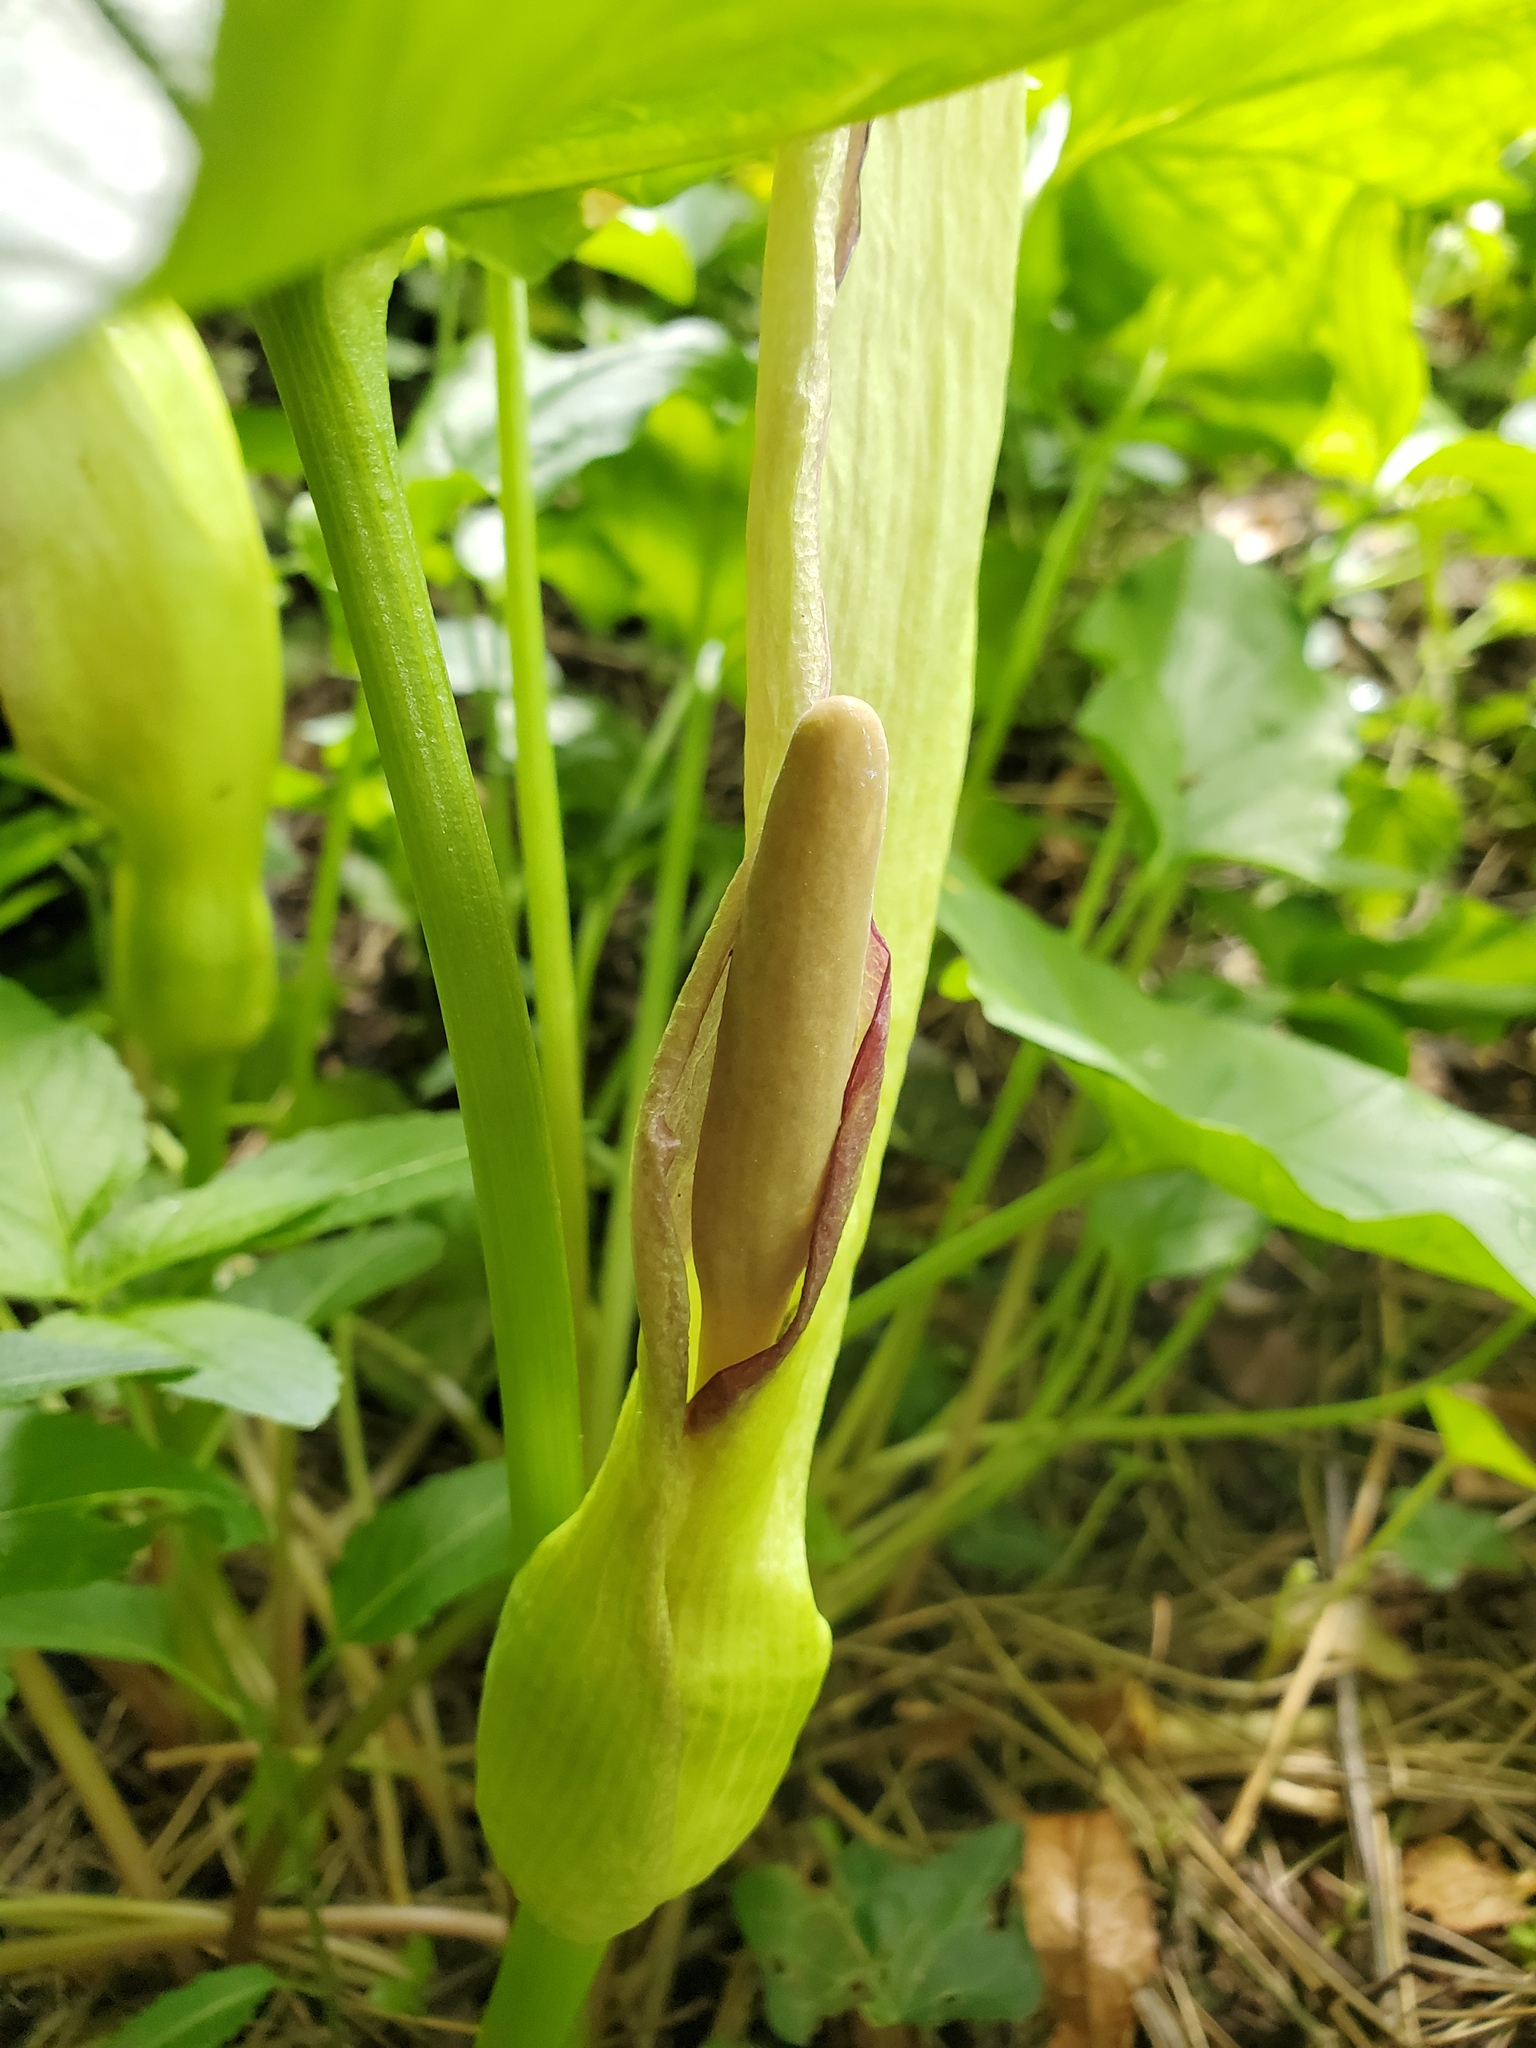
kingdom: Plantae
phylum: Tracheophyta
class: Liliopsida
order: Alismatales
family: Araceae
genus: Arum
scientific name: Arum maculatum
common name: Lords-and-ladies
